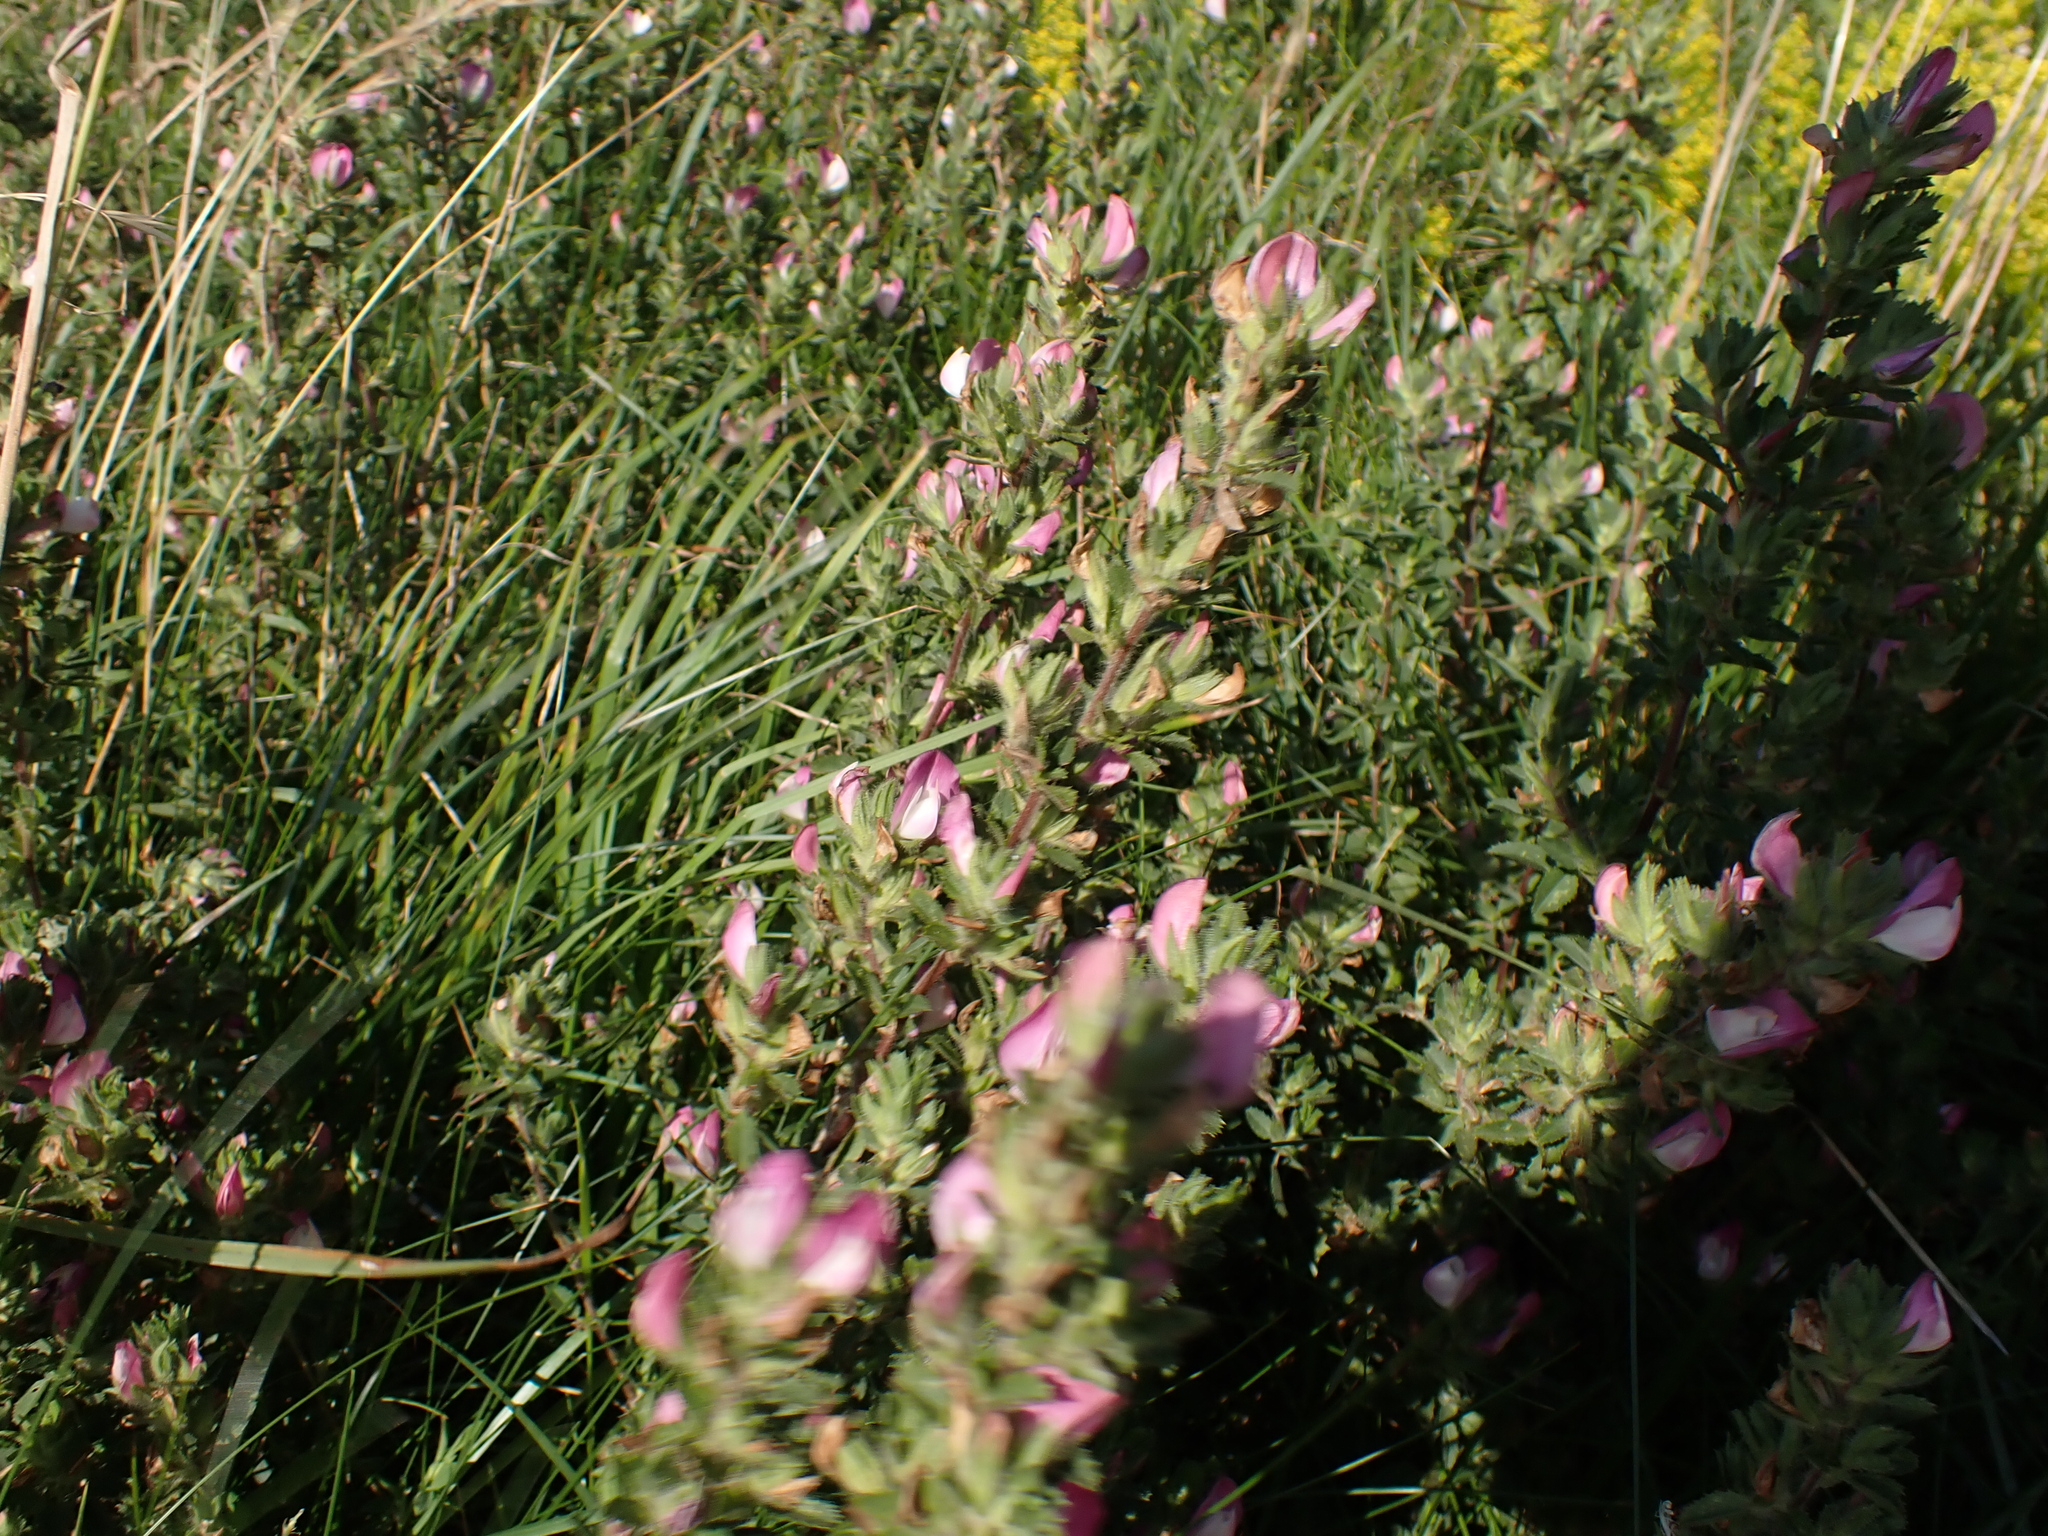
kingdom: Plantae
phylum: Tracheophyta
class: Magnoliopsida
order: Fabales
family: Fabaceae
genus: Ononis
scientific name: Ononis arvensis
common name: Field restharrow
